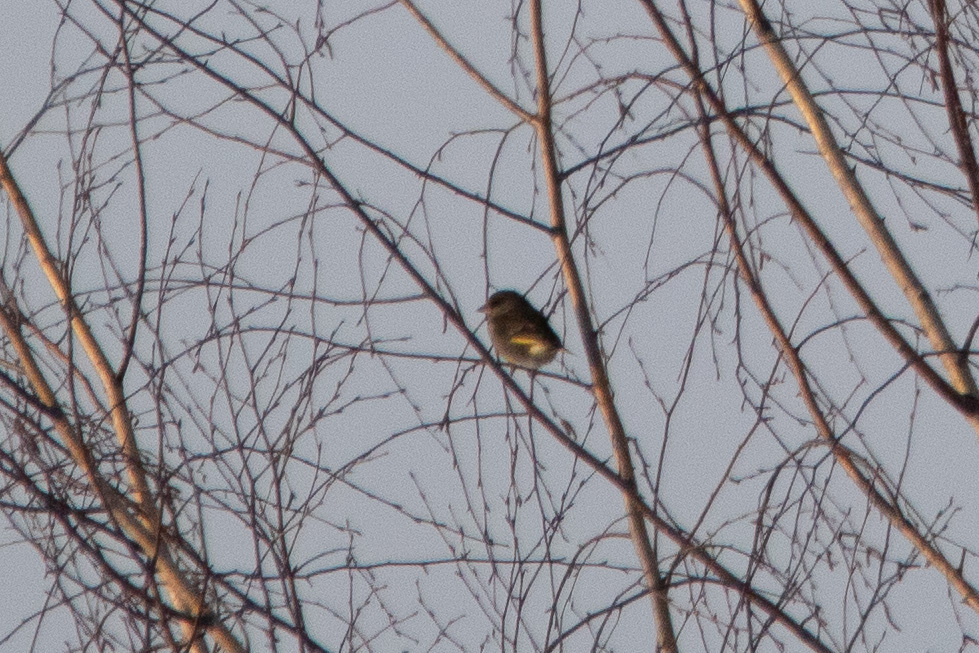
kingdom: Plantae
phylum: Tracheophyta
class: Liliopsida
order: Poales
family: Poaceae
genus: Chloris
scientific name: Chloris chloris
